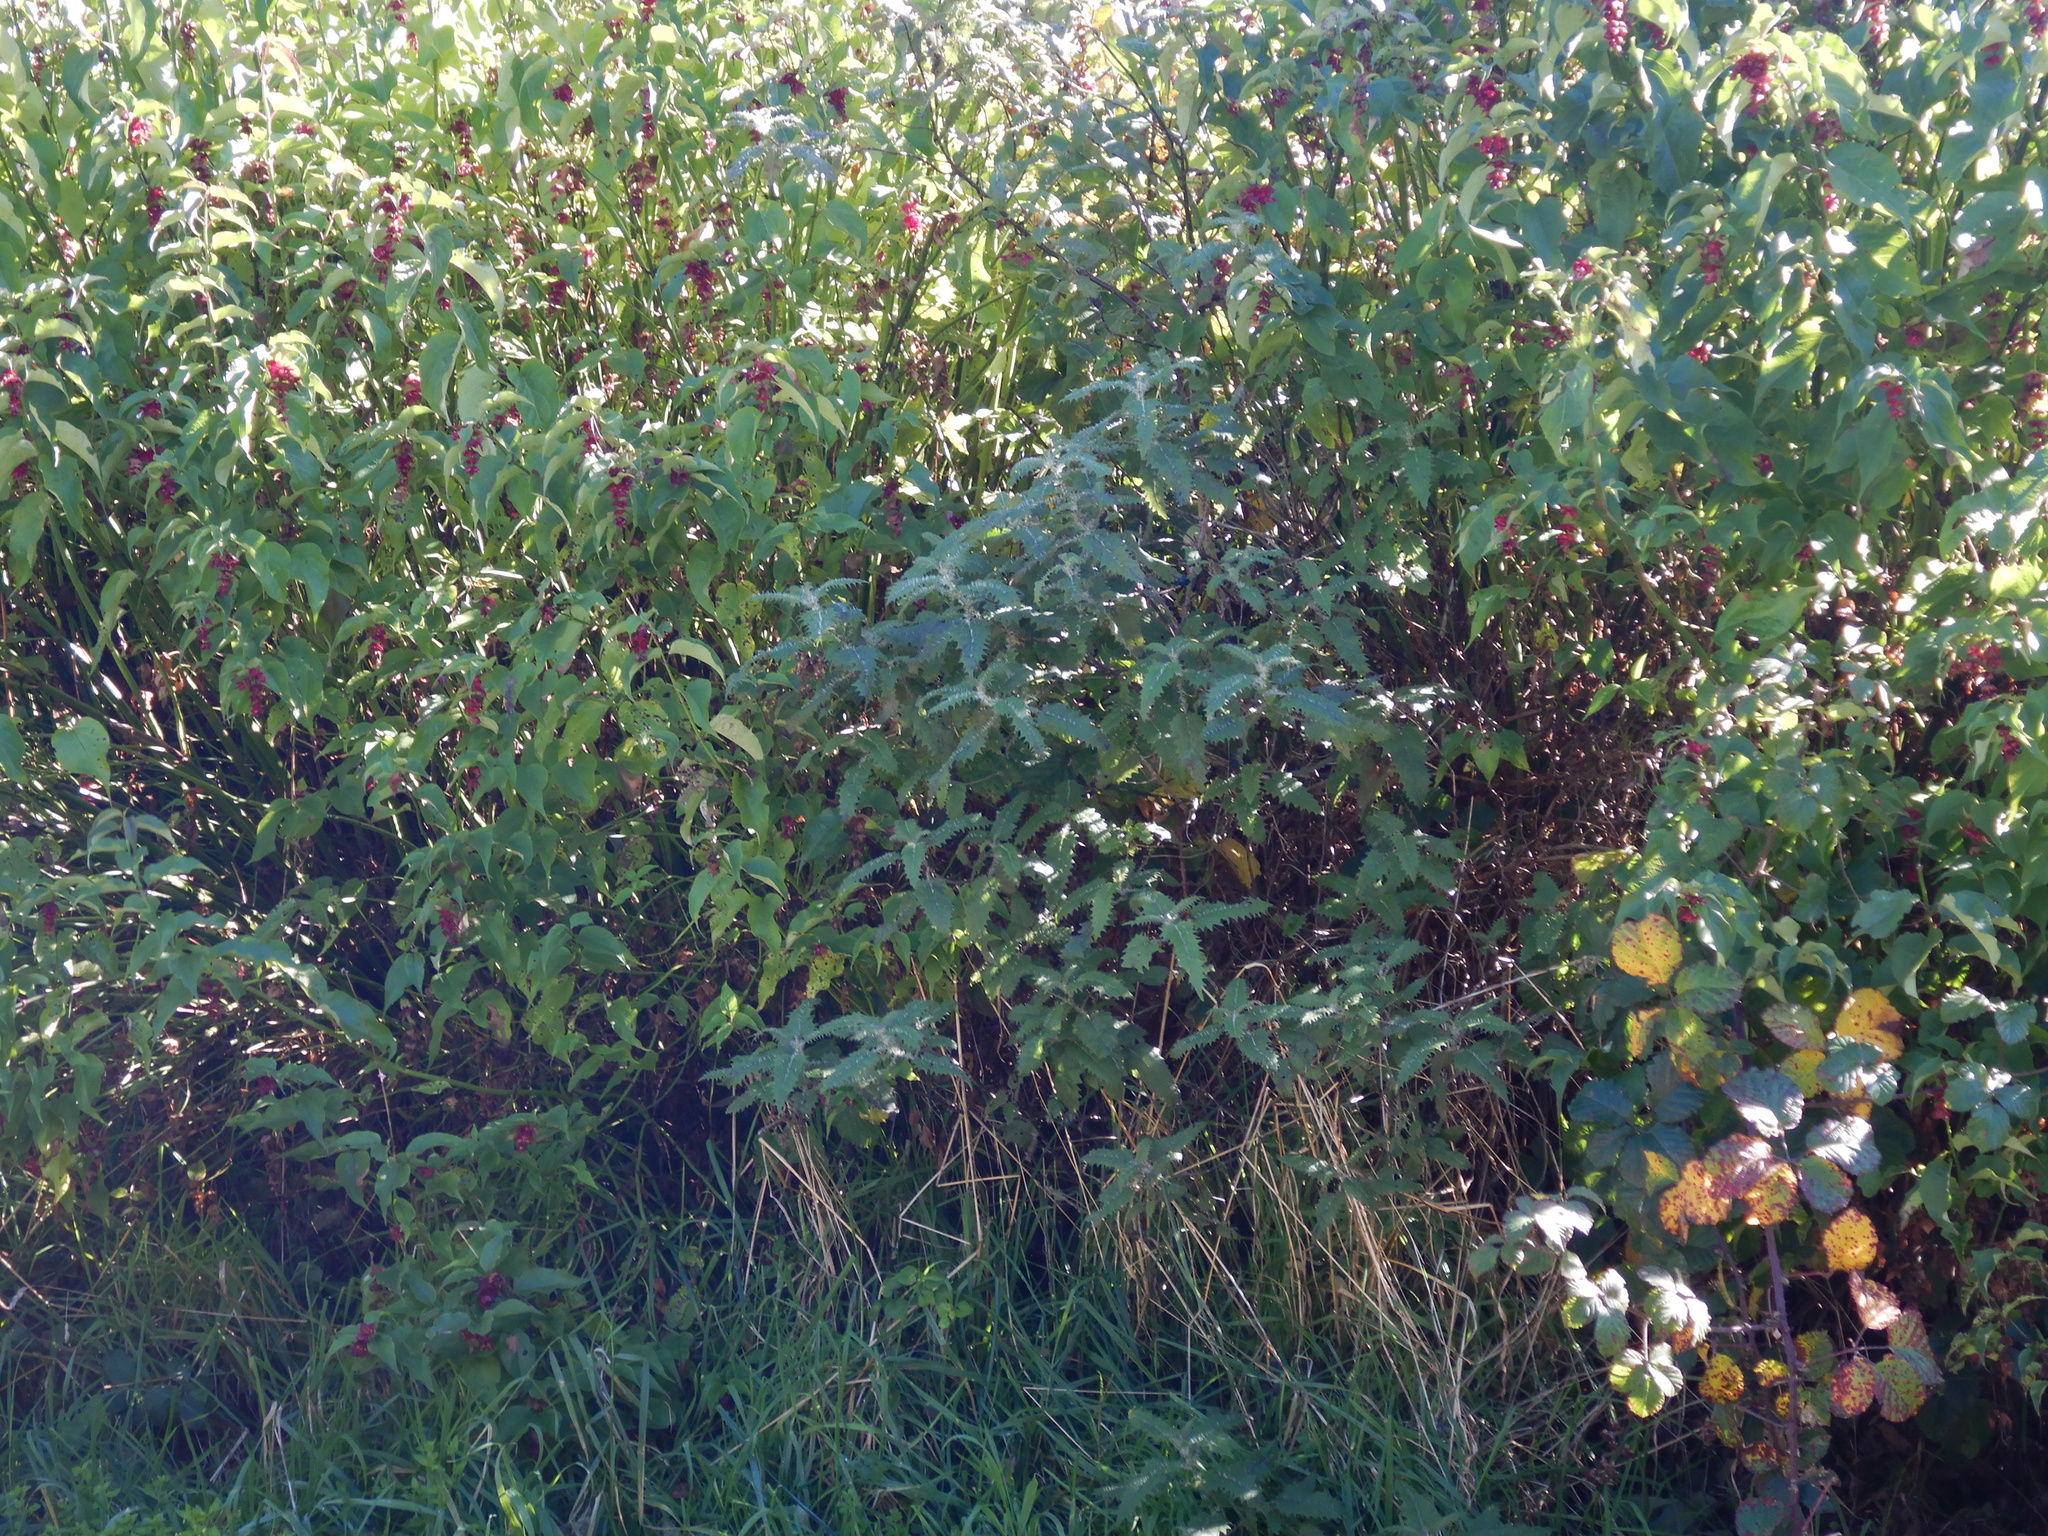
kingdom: Plantae
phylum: Tracheophyta
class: Magnoliopsida
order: Rosales
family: Urticaceae
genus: Urtica
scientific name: Urtica ferox
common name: Tree nettle
